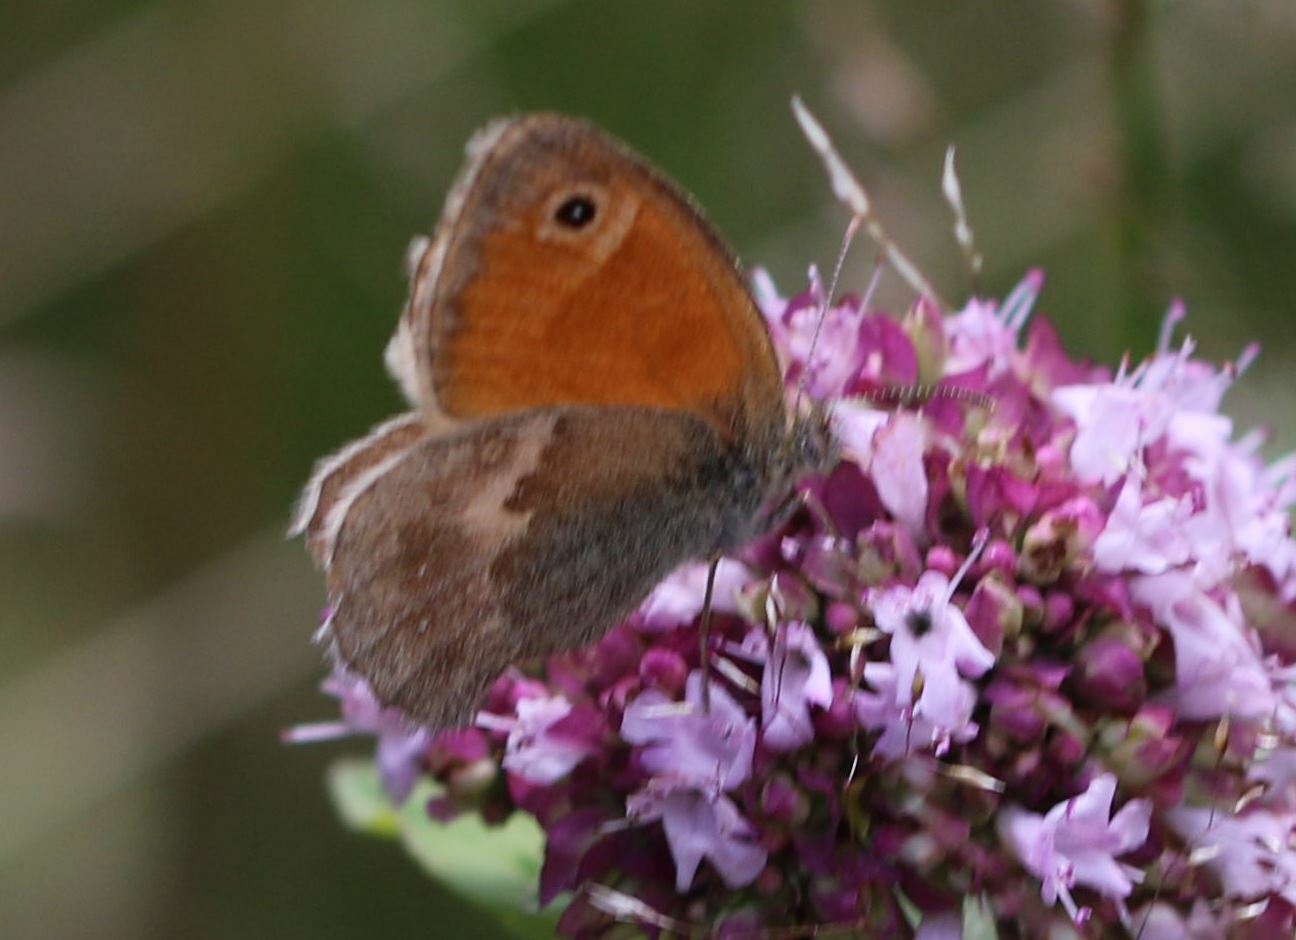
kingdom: Animalia
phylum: Arthropoda
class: Insecta
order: Lepidoptera
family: Nymphalidae
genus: Coenonympha
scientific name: Coenonympha pamphilus
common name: Small heath
